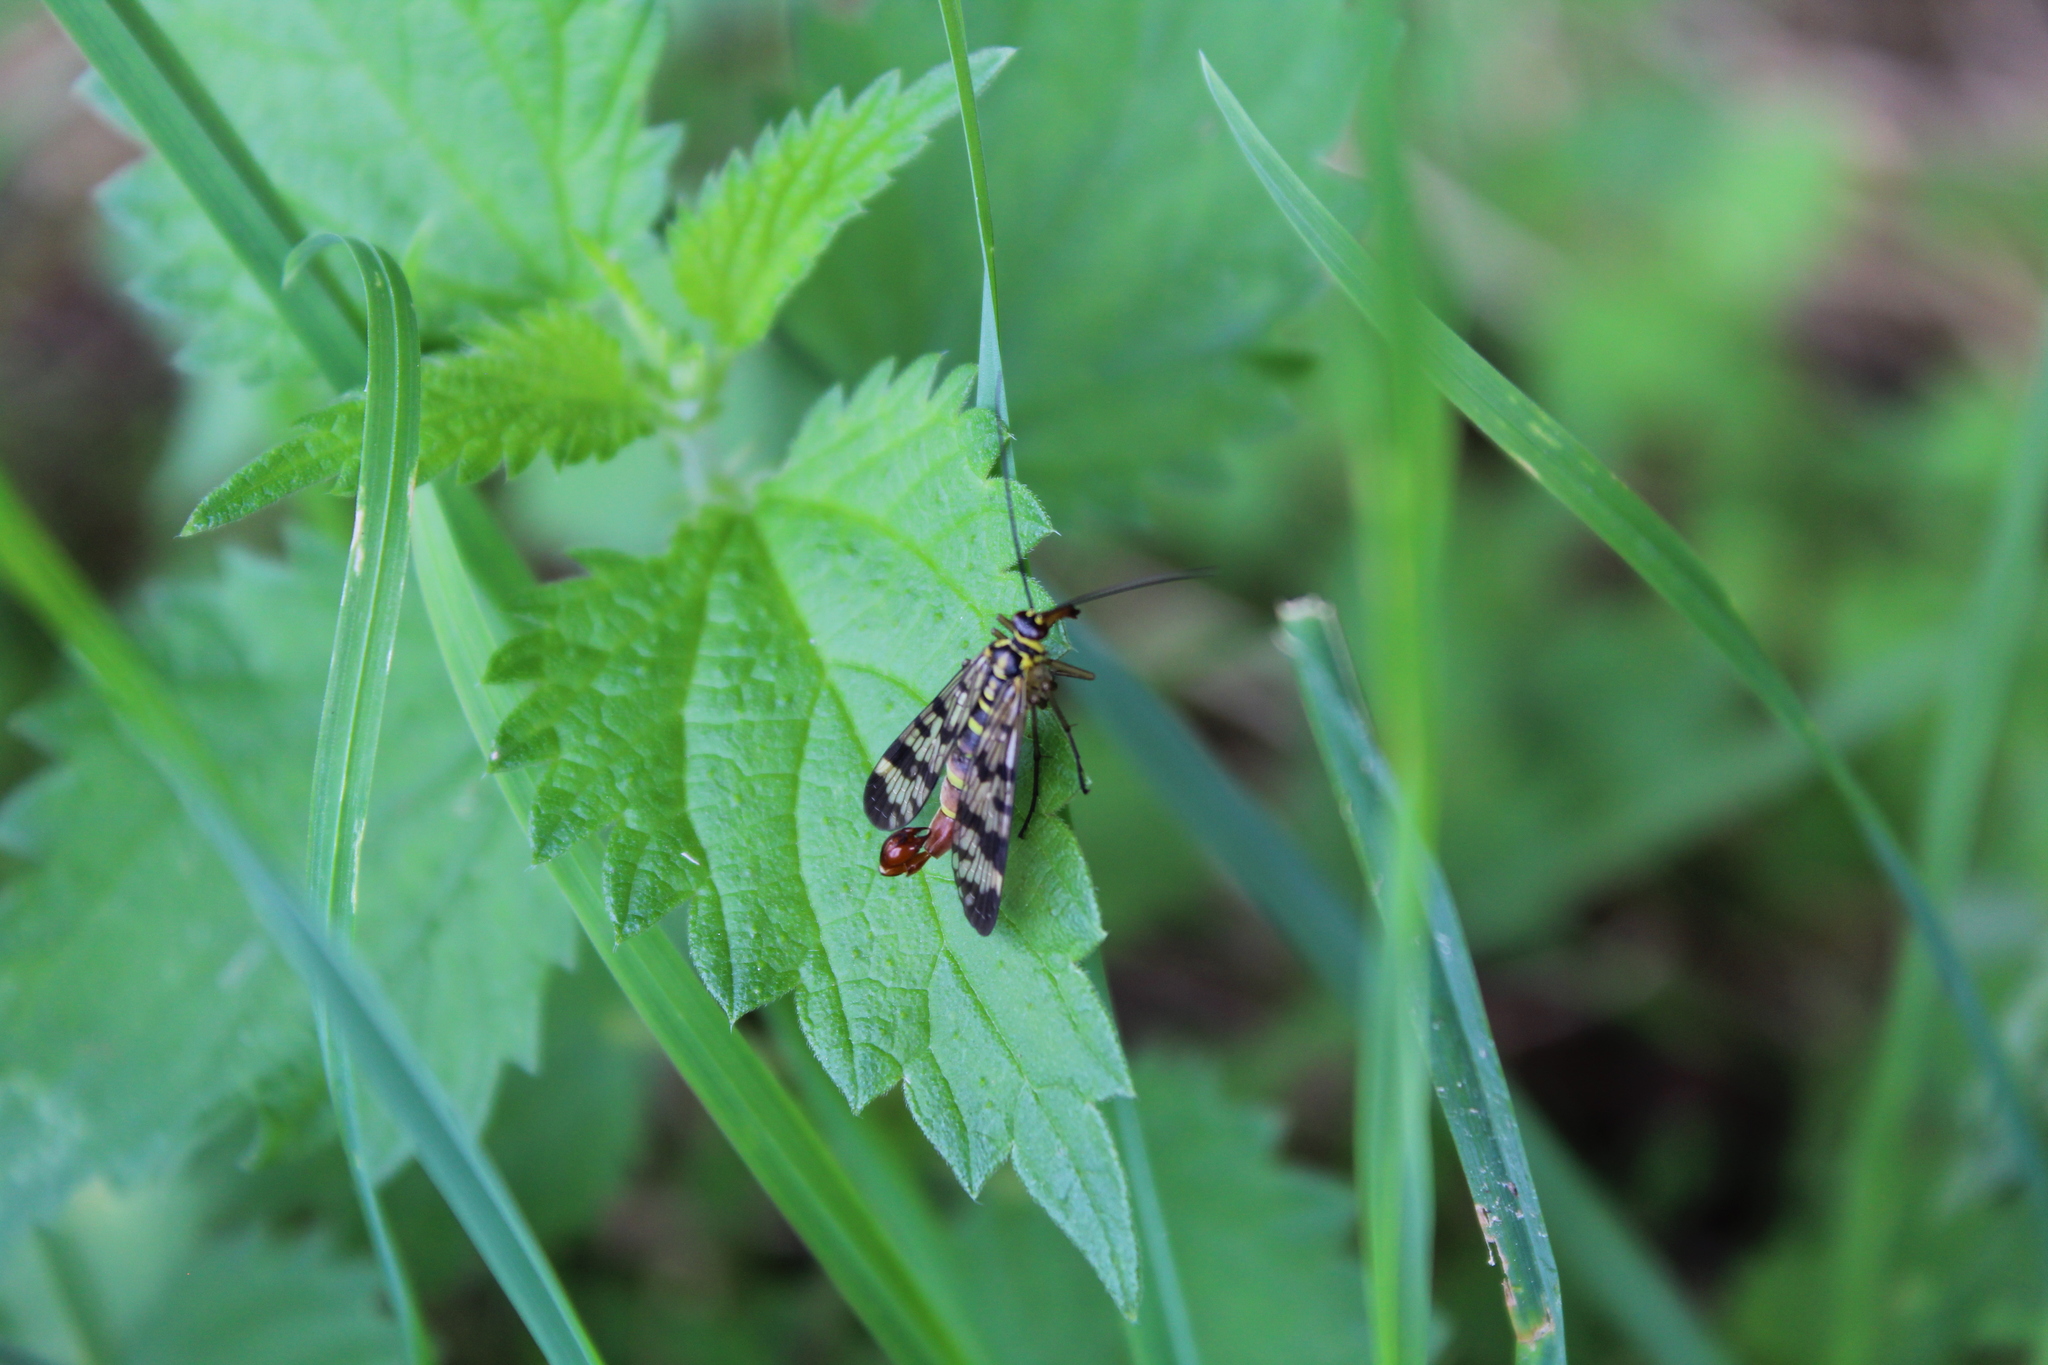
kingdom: Animalia
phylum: Arthropoda
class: Insecta
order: Mecoptera
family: Panorpidae
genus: Panorpa
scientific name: Panorpa communis
